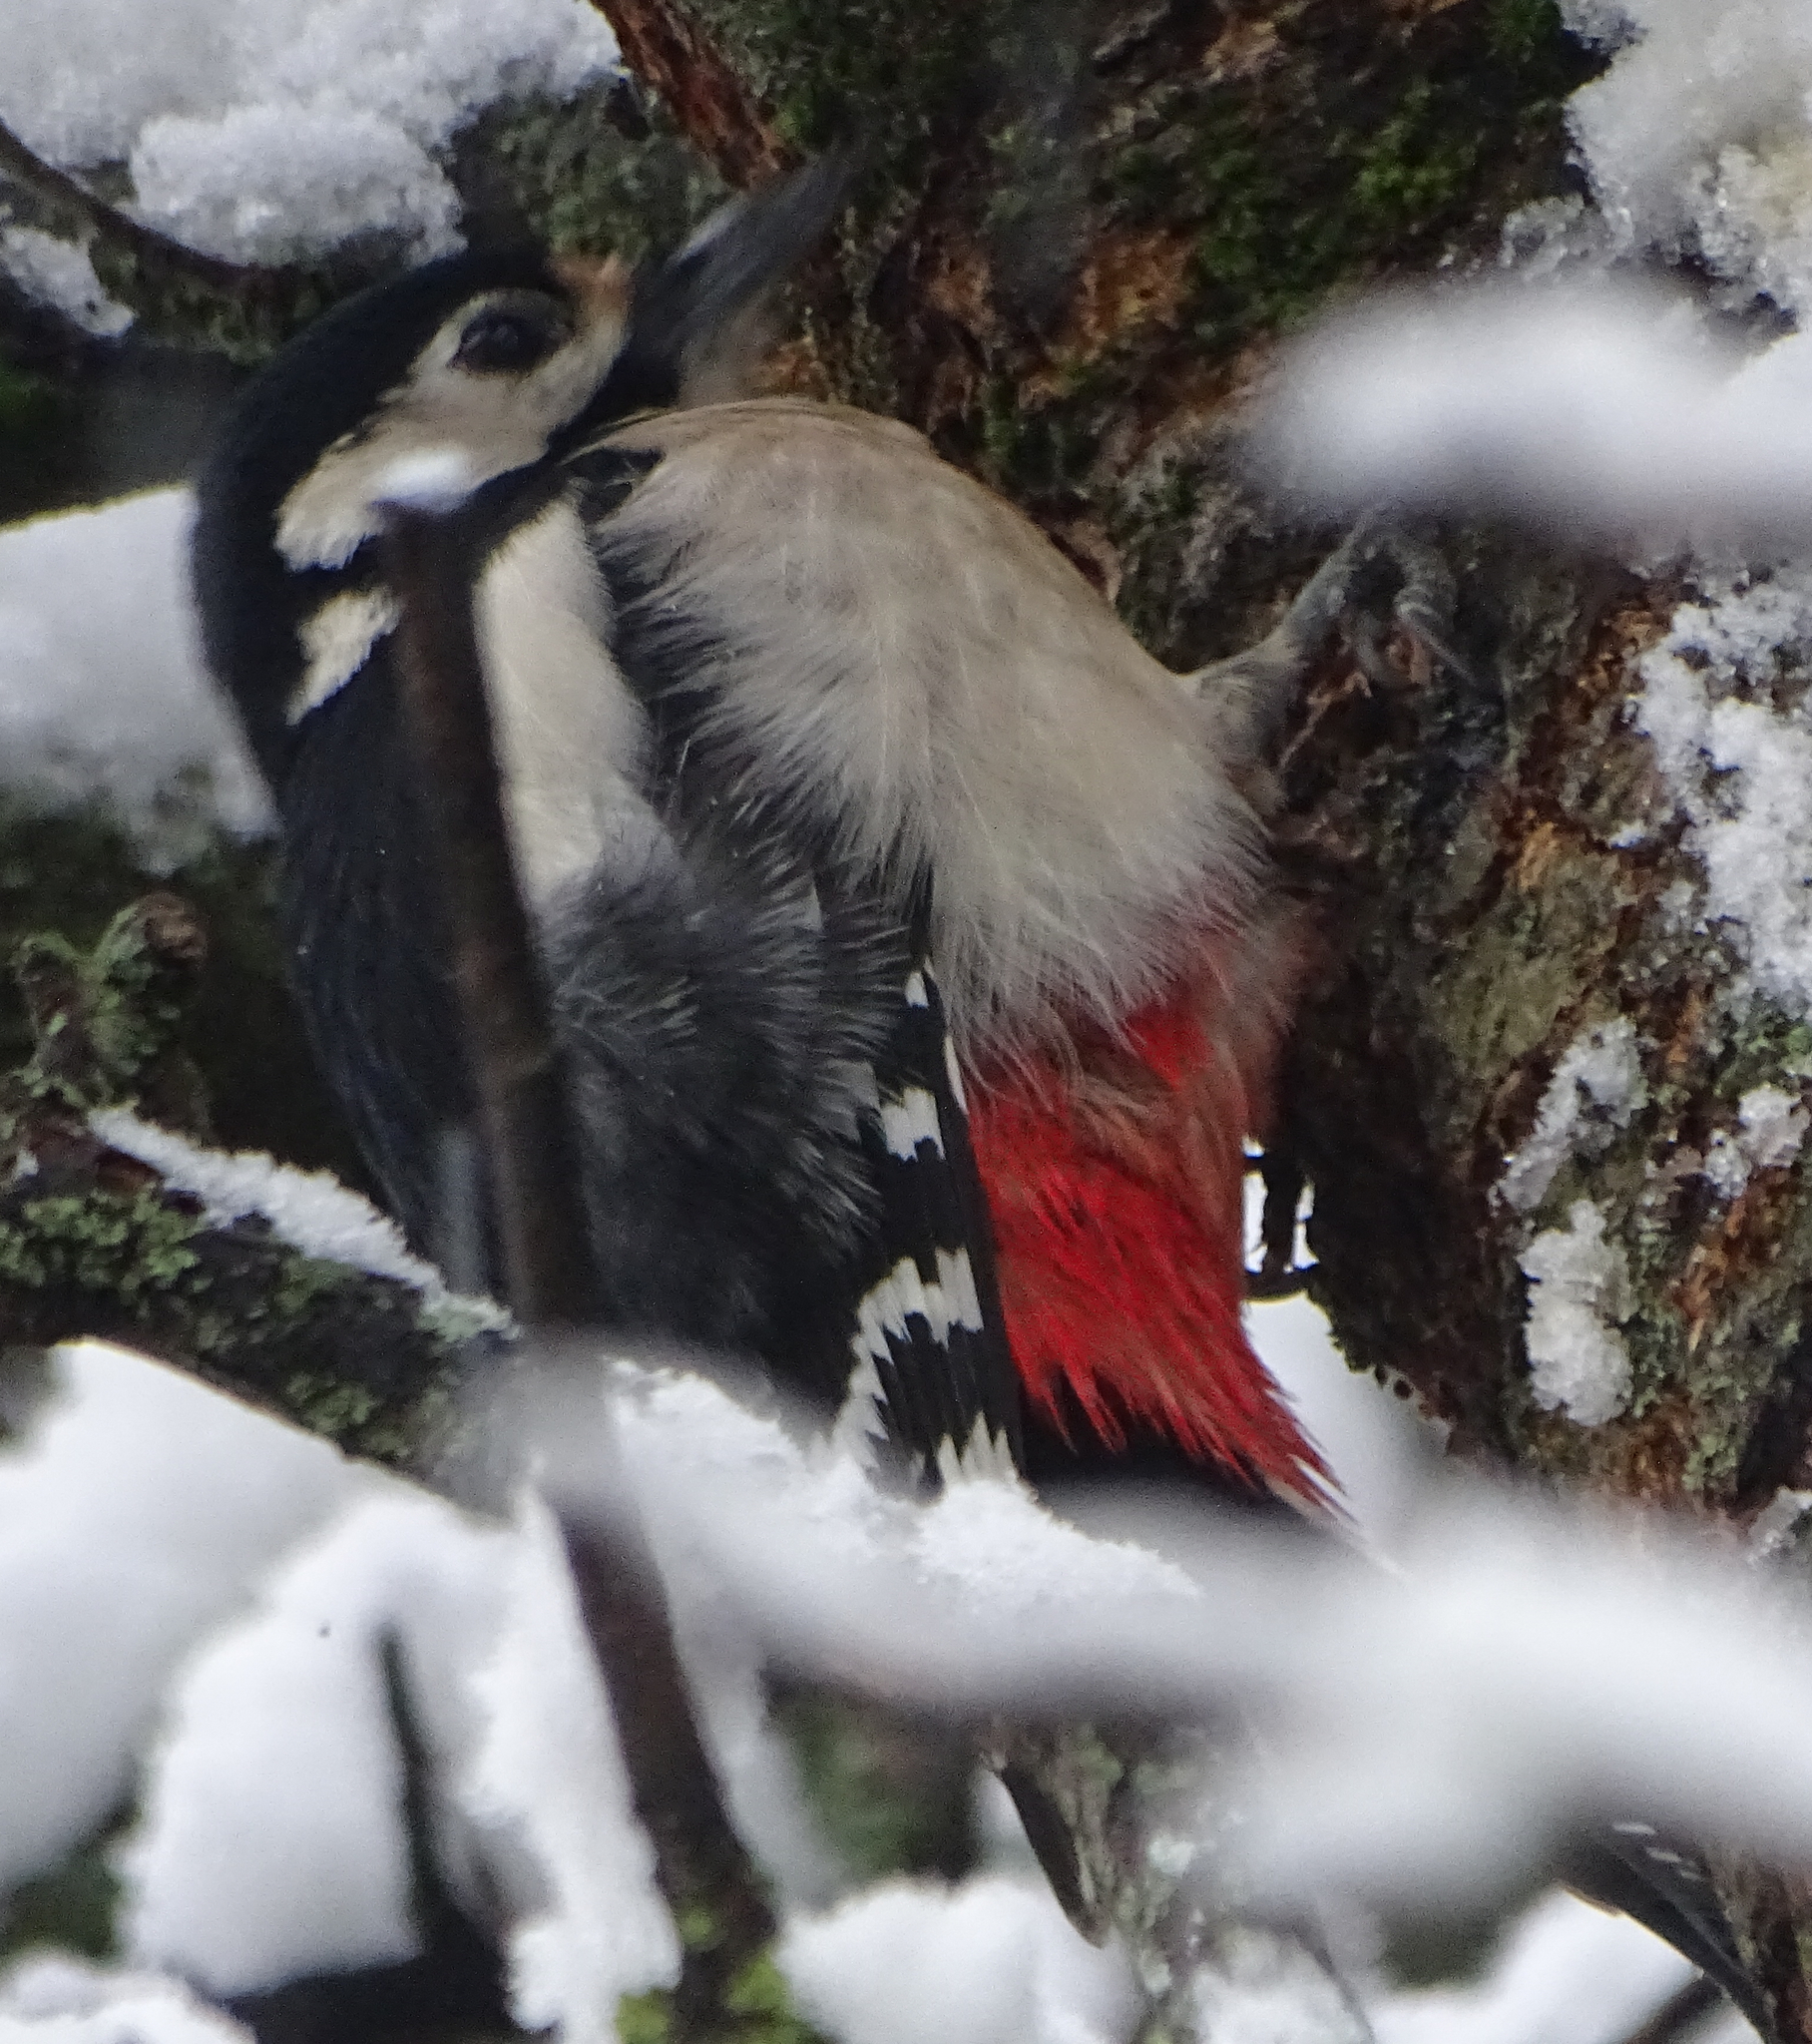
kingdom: Animalia
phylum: Chordata
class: Aves
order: Piciformes
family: Picidae
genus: Dendrocopos
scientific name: Dendrocopos major
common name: Great spotted woodpecker
